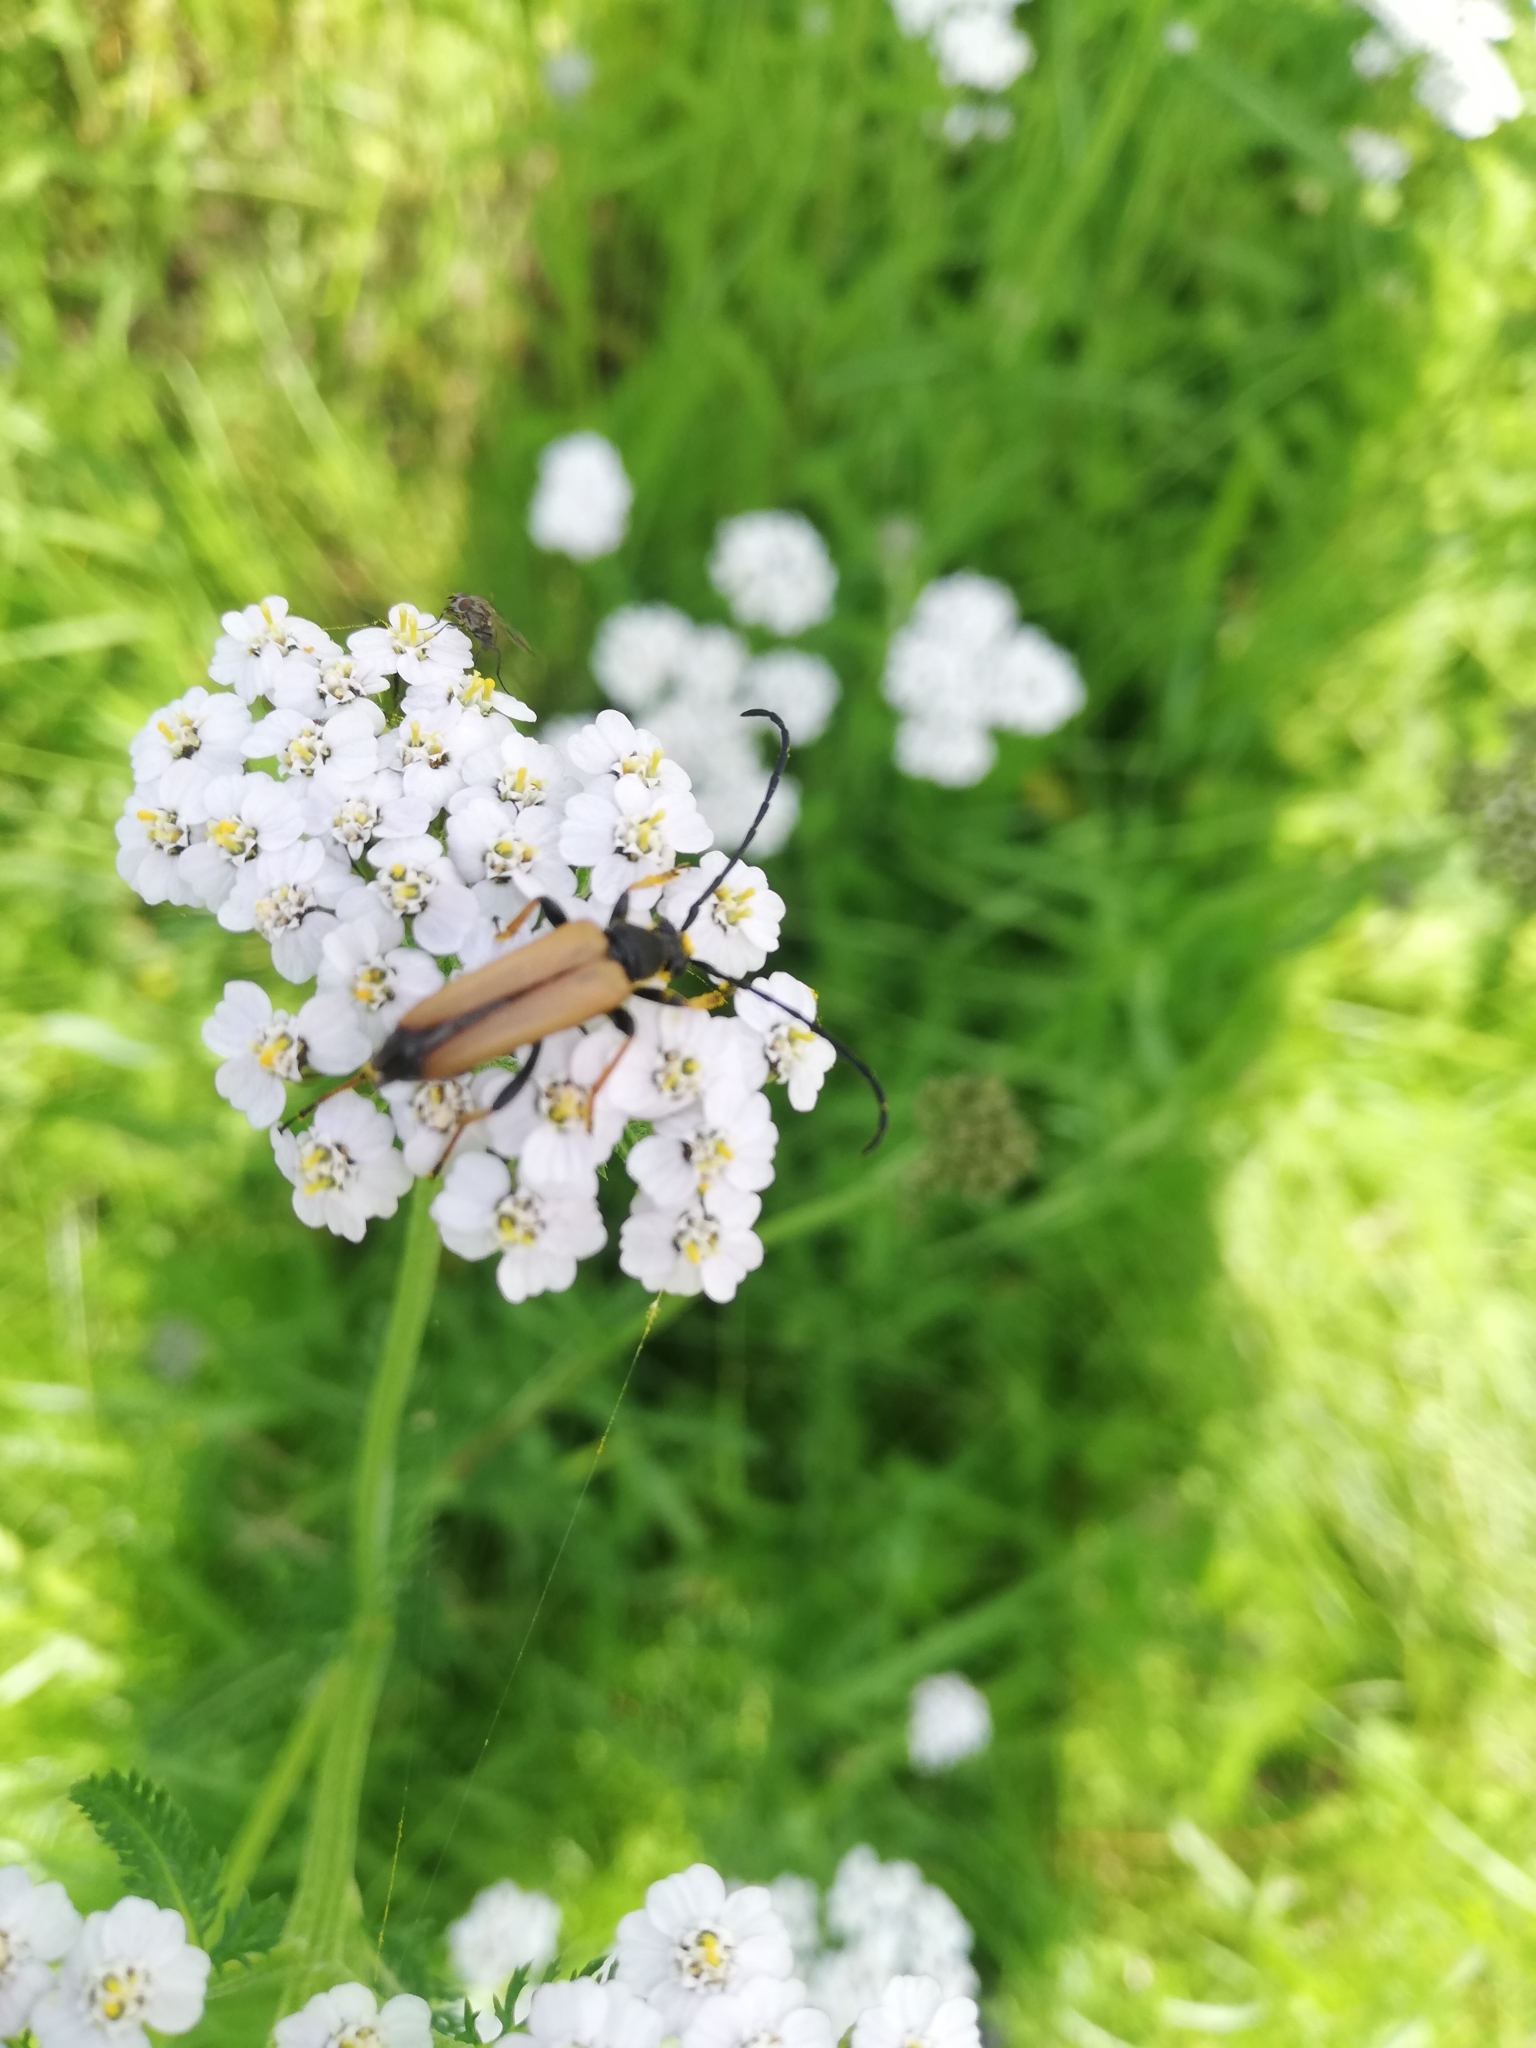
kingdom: Animalia
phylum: Arthropoda
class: Insecta
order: Coleoptera
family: Cerambycidae
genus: Stictoleptura
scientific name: Stictoleptura rubra
